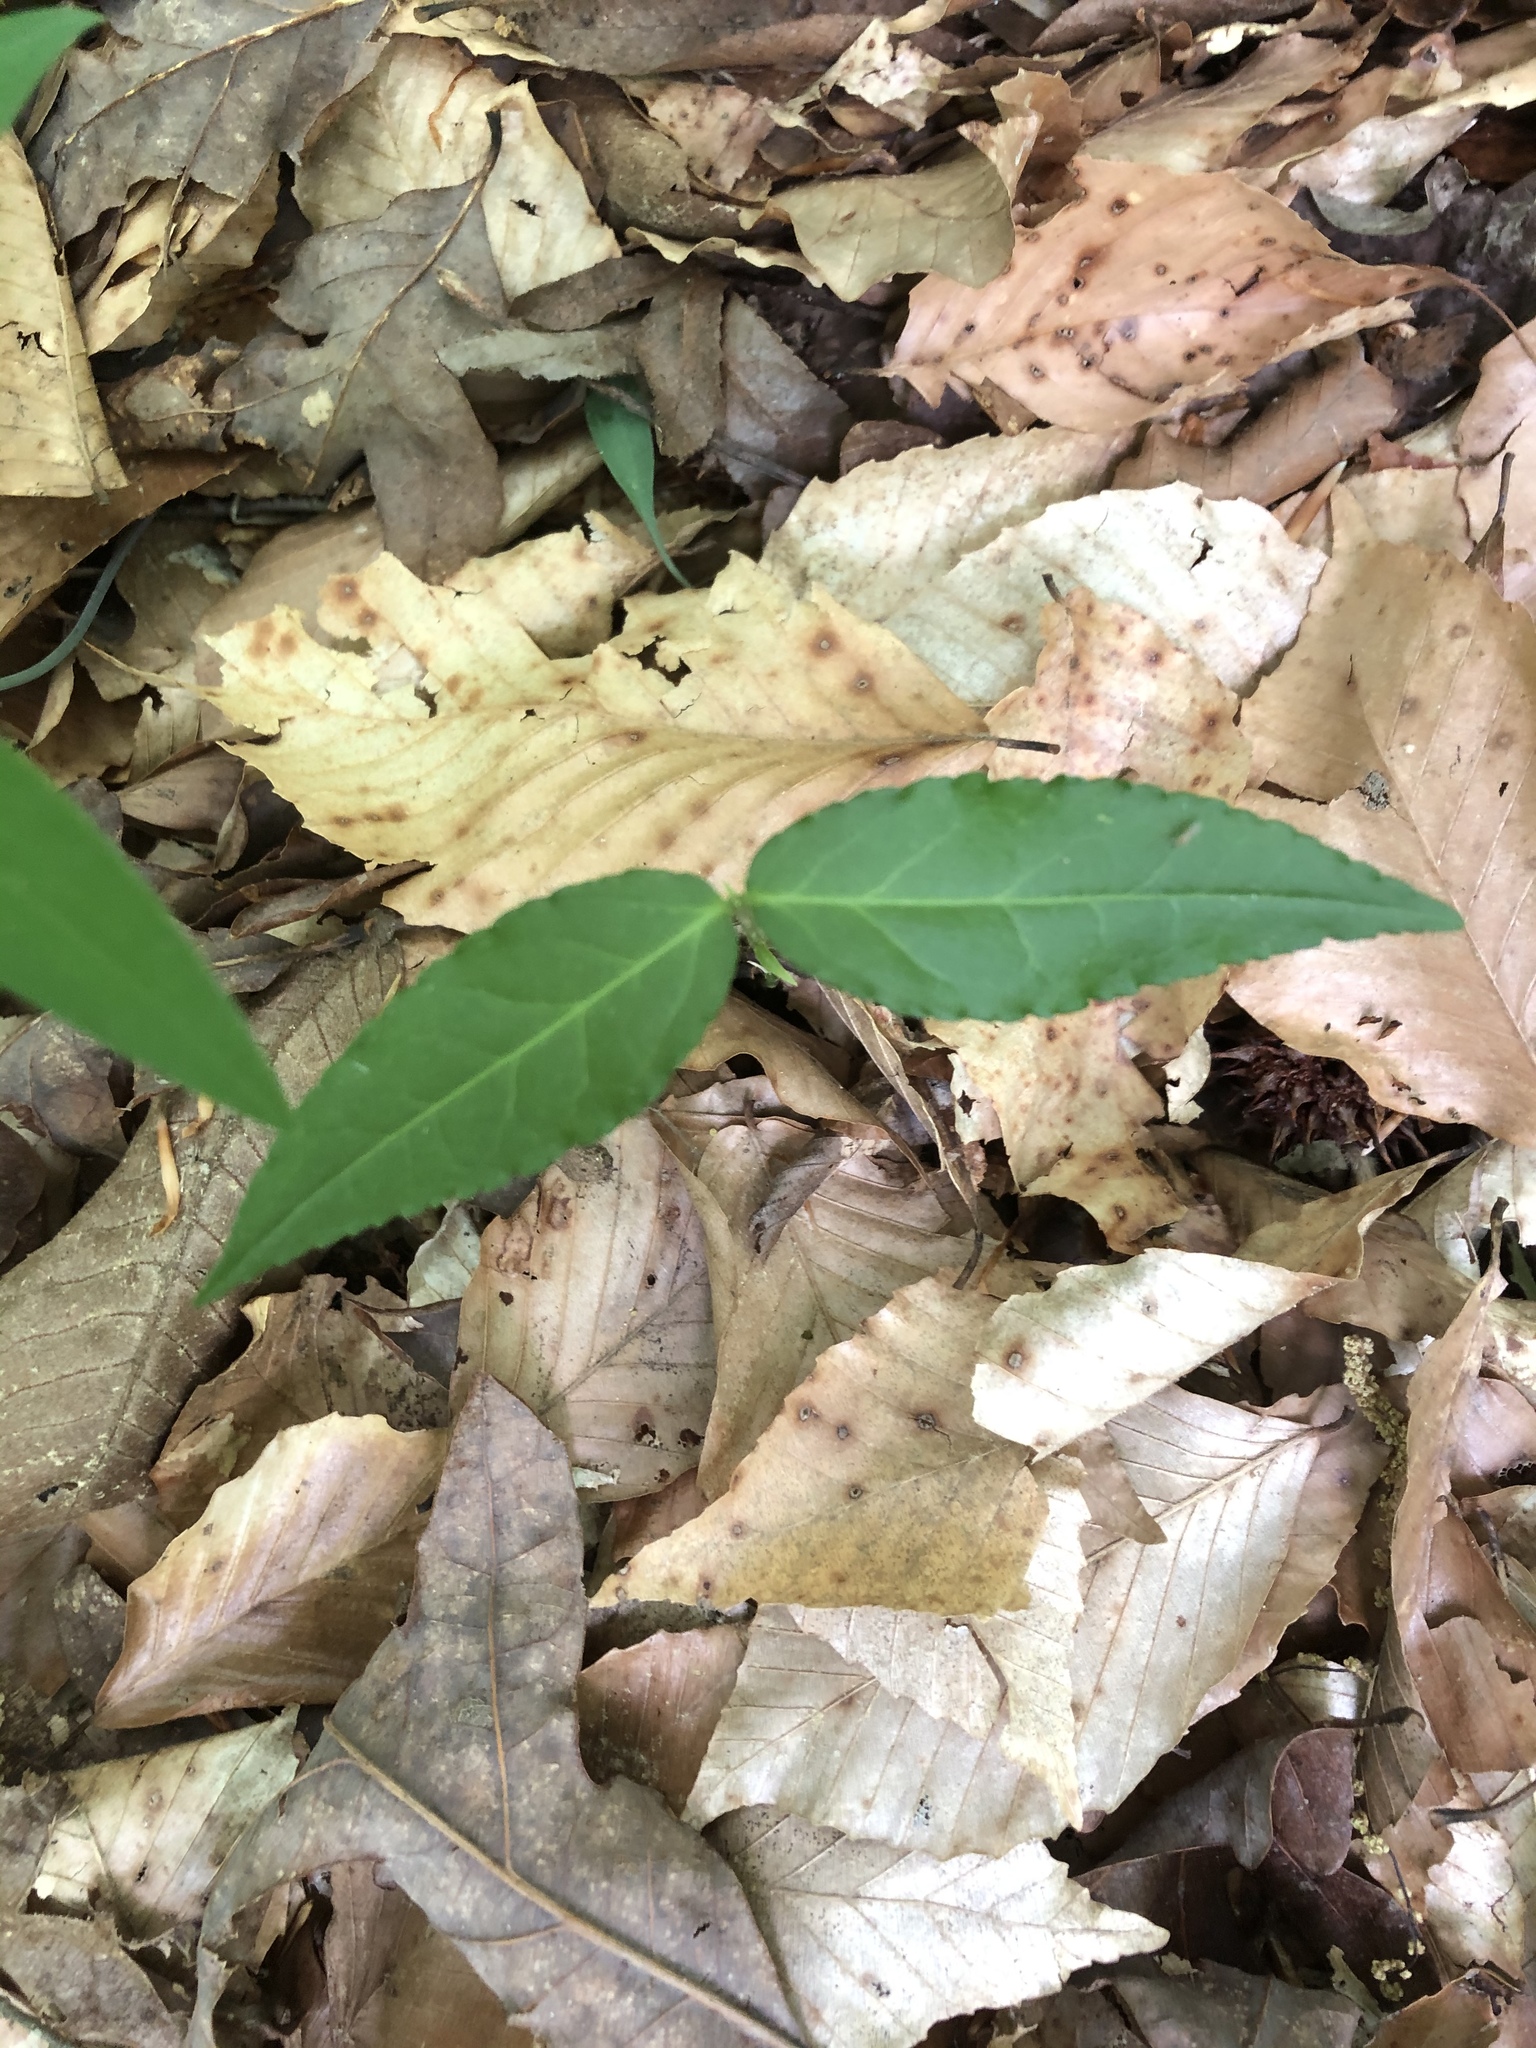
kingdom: Plantae
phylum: Tracheophyta
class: Magnoliopsida
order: Celastrales
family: Celastraceae
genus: Euonymus
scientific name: Euonymus americanus
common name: Bursting-heart
